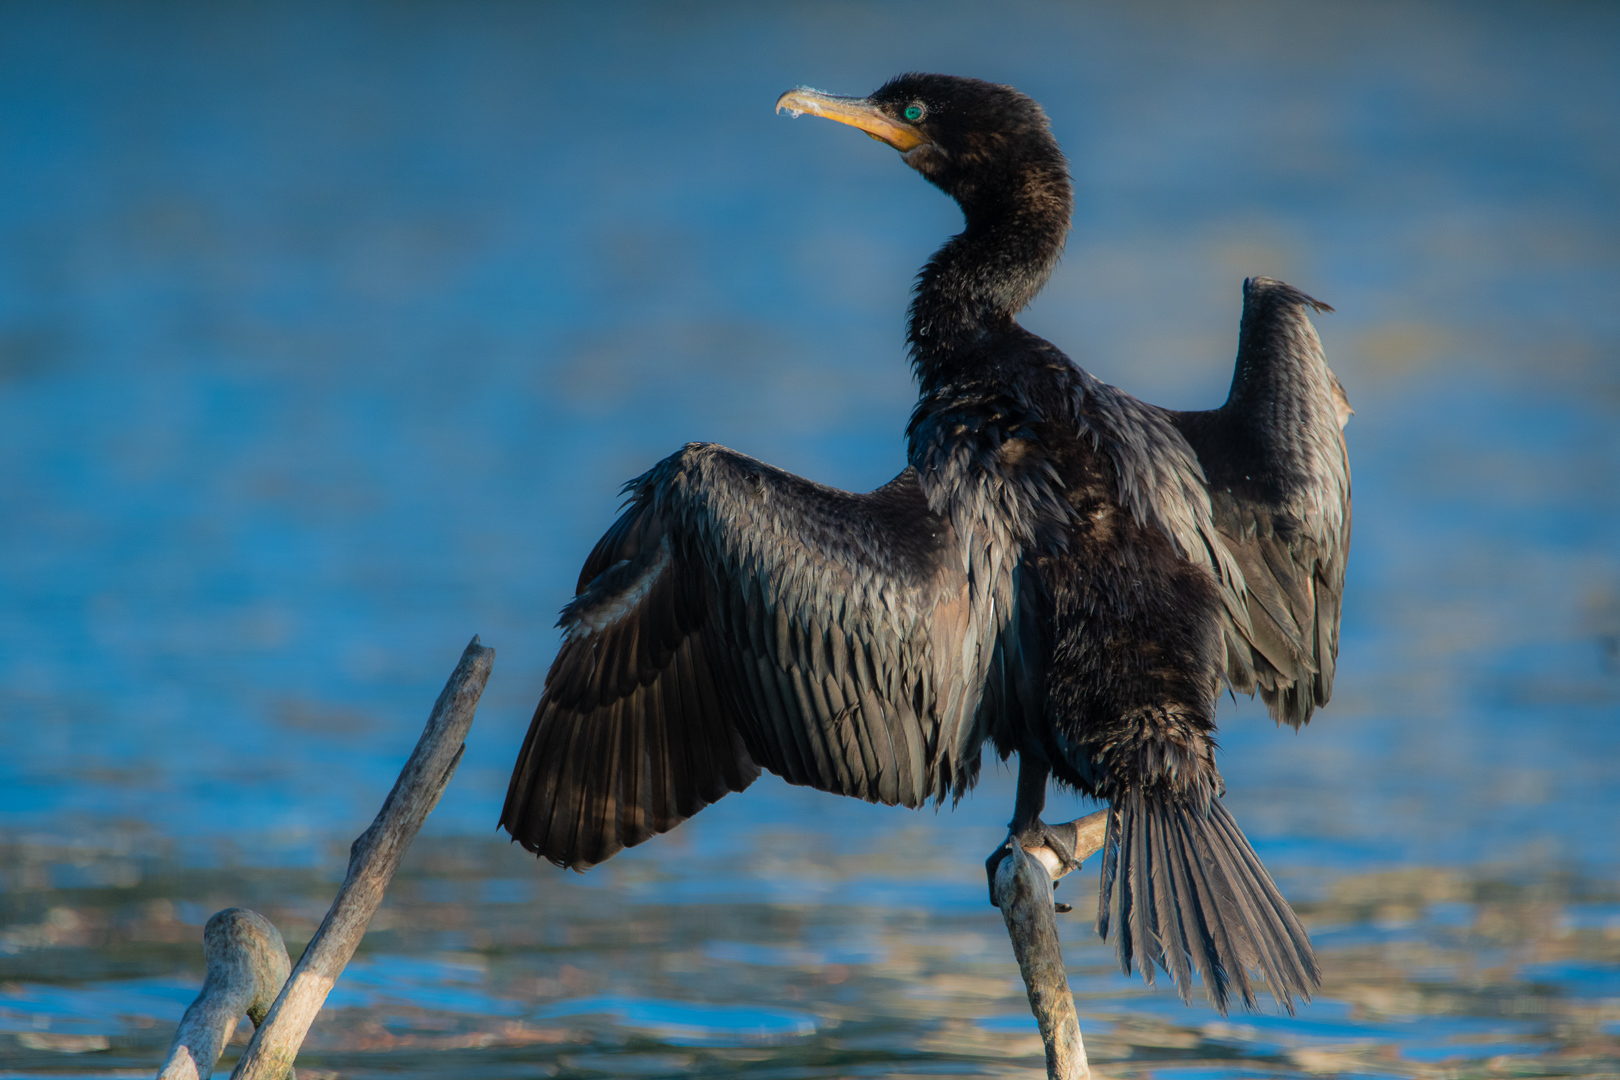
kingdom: Animalia
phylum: Chordata
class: Aves
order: Suliformes
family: Phalacrocoracidae
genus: Phalacrocorax
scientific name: Phalacrocorax brasilianus
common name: Neotropic cormorant
